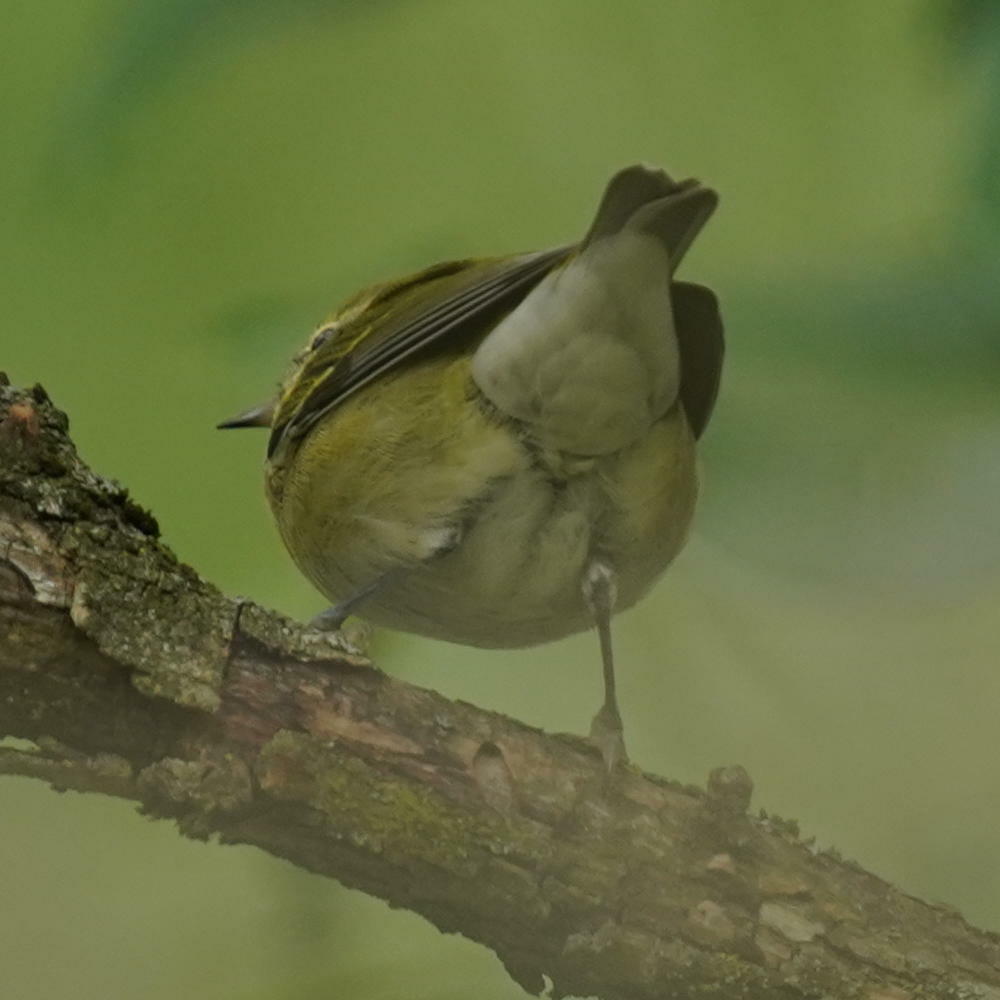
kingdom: Animalia
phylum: Chordata
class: Aves
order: Passeriformes
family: Parulidae
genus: Leiothlypis
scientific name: Leiothlypis peregrina
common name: Tennessee warbler
